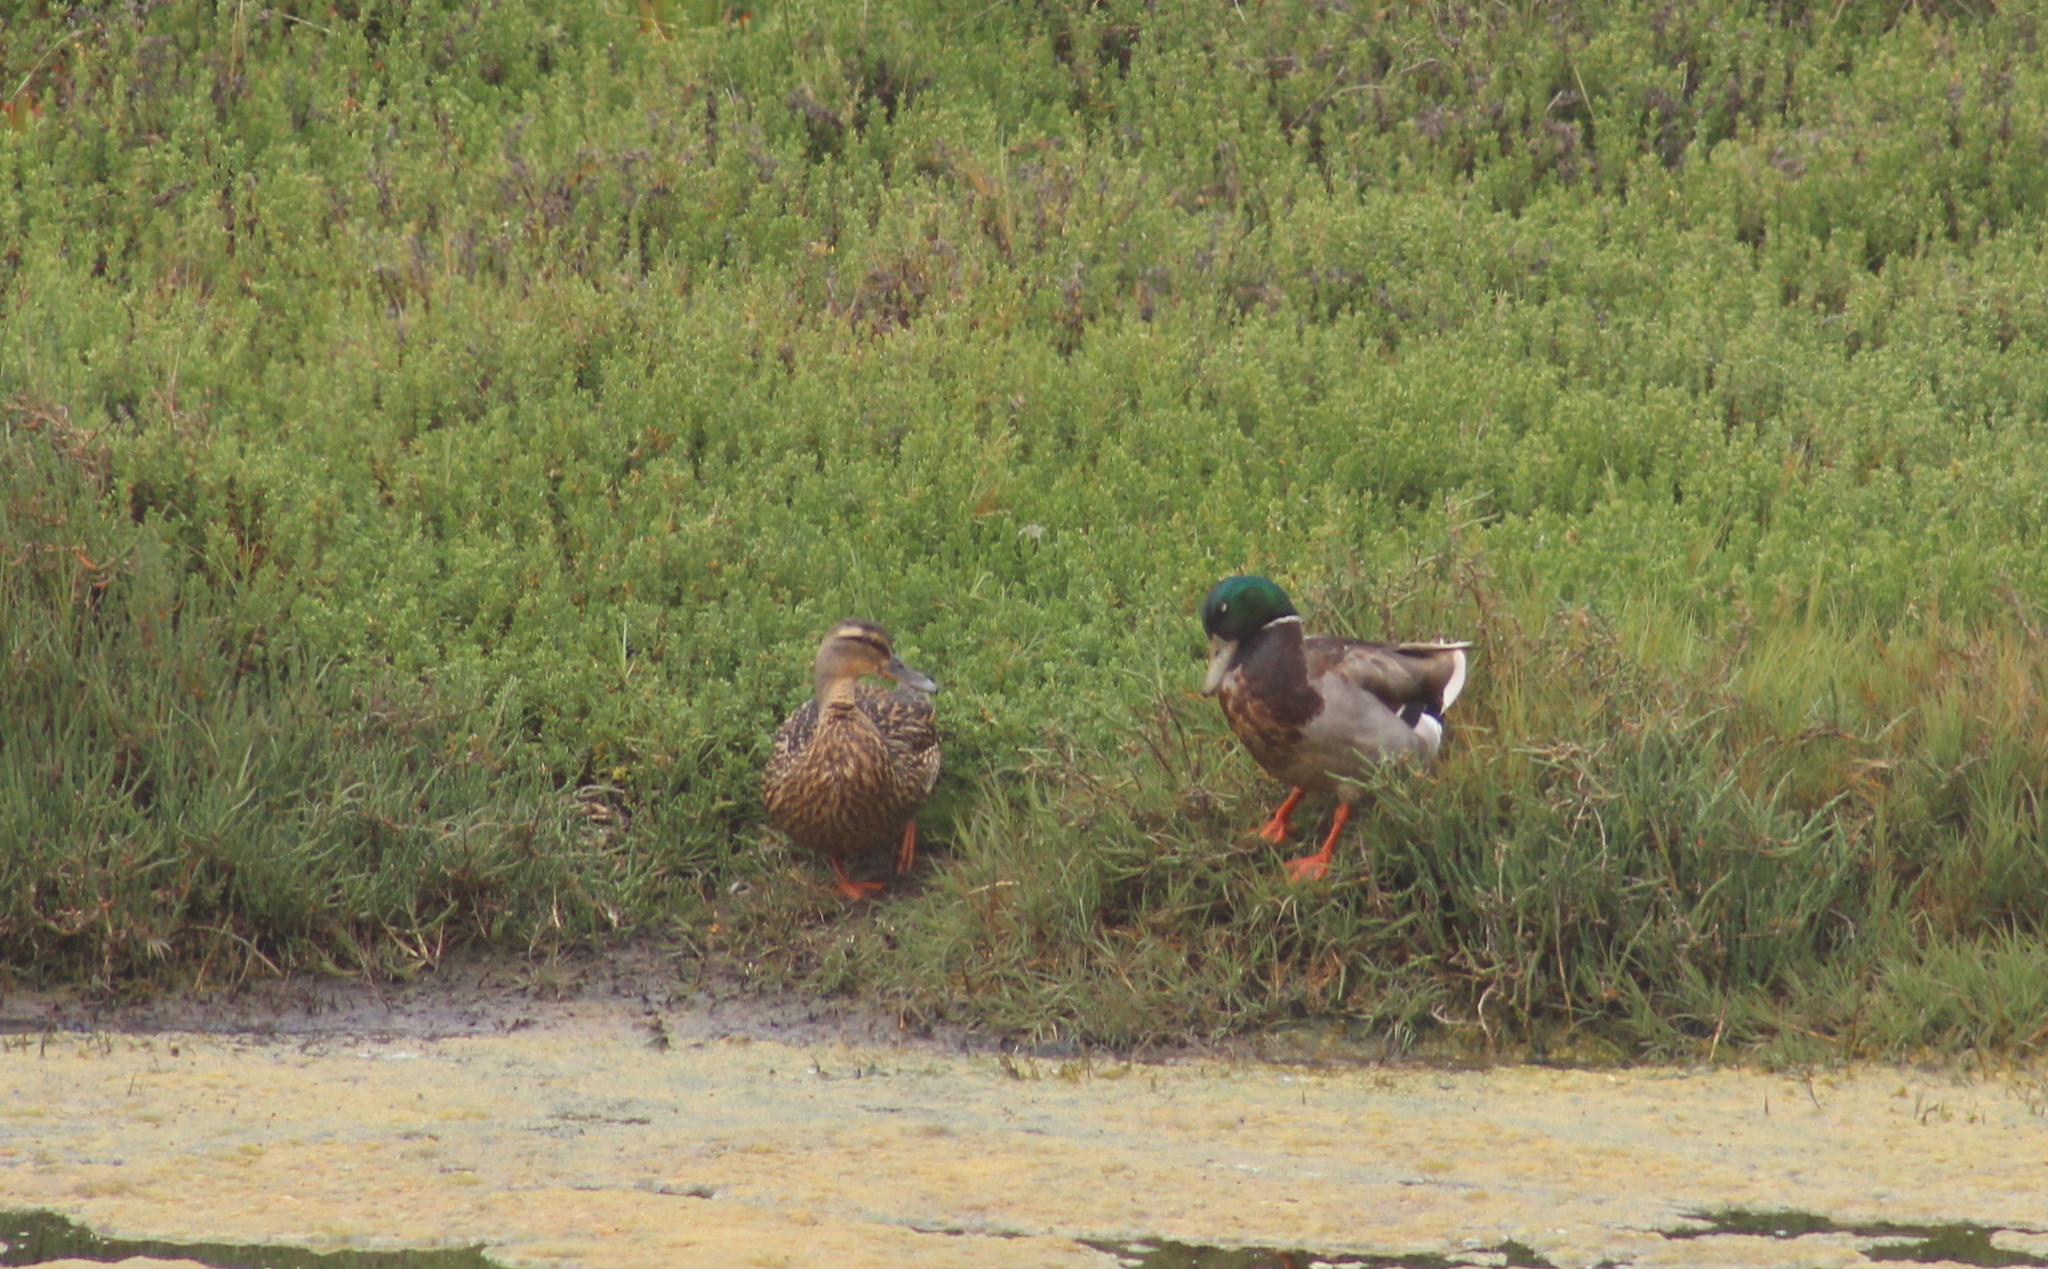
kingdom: Animalia
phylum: Chordata
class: Aves
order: Anseriformes
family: Anatidae
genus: Anas
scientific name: Anas platyrhynchos
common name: Mallard
